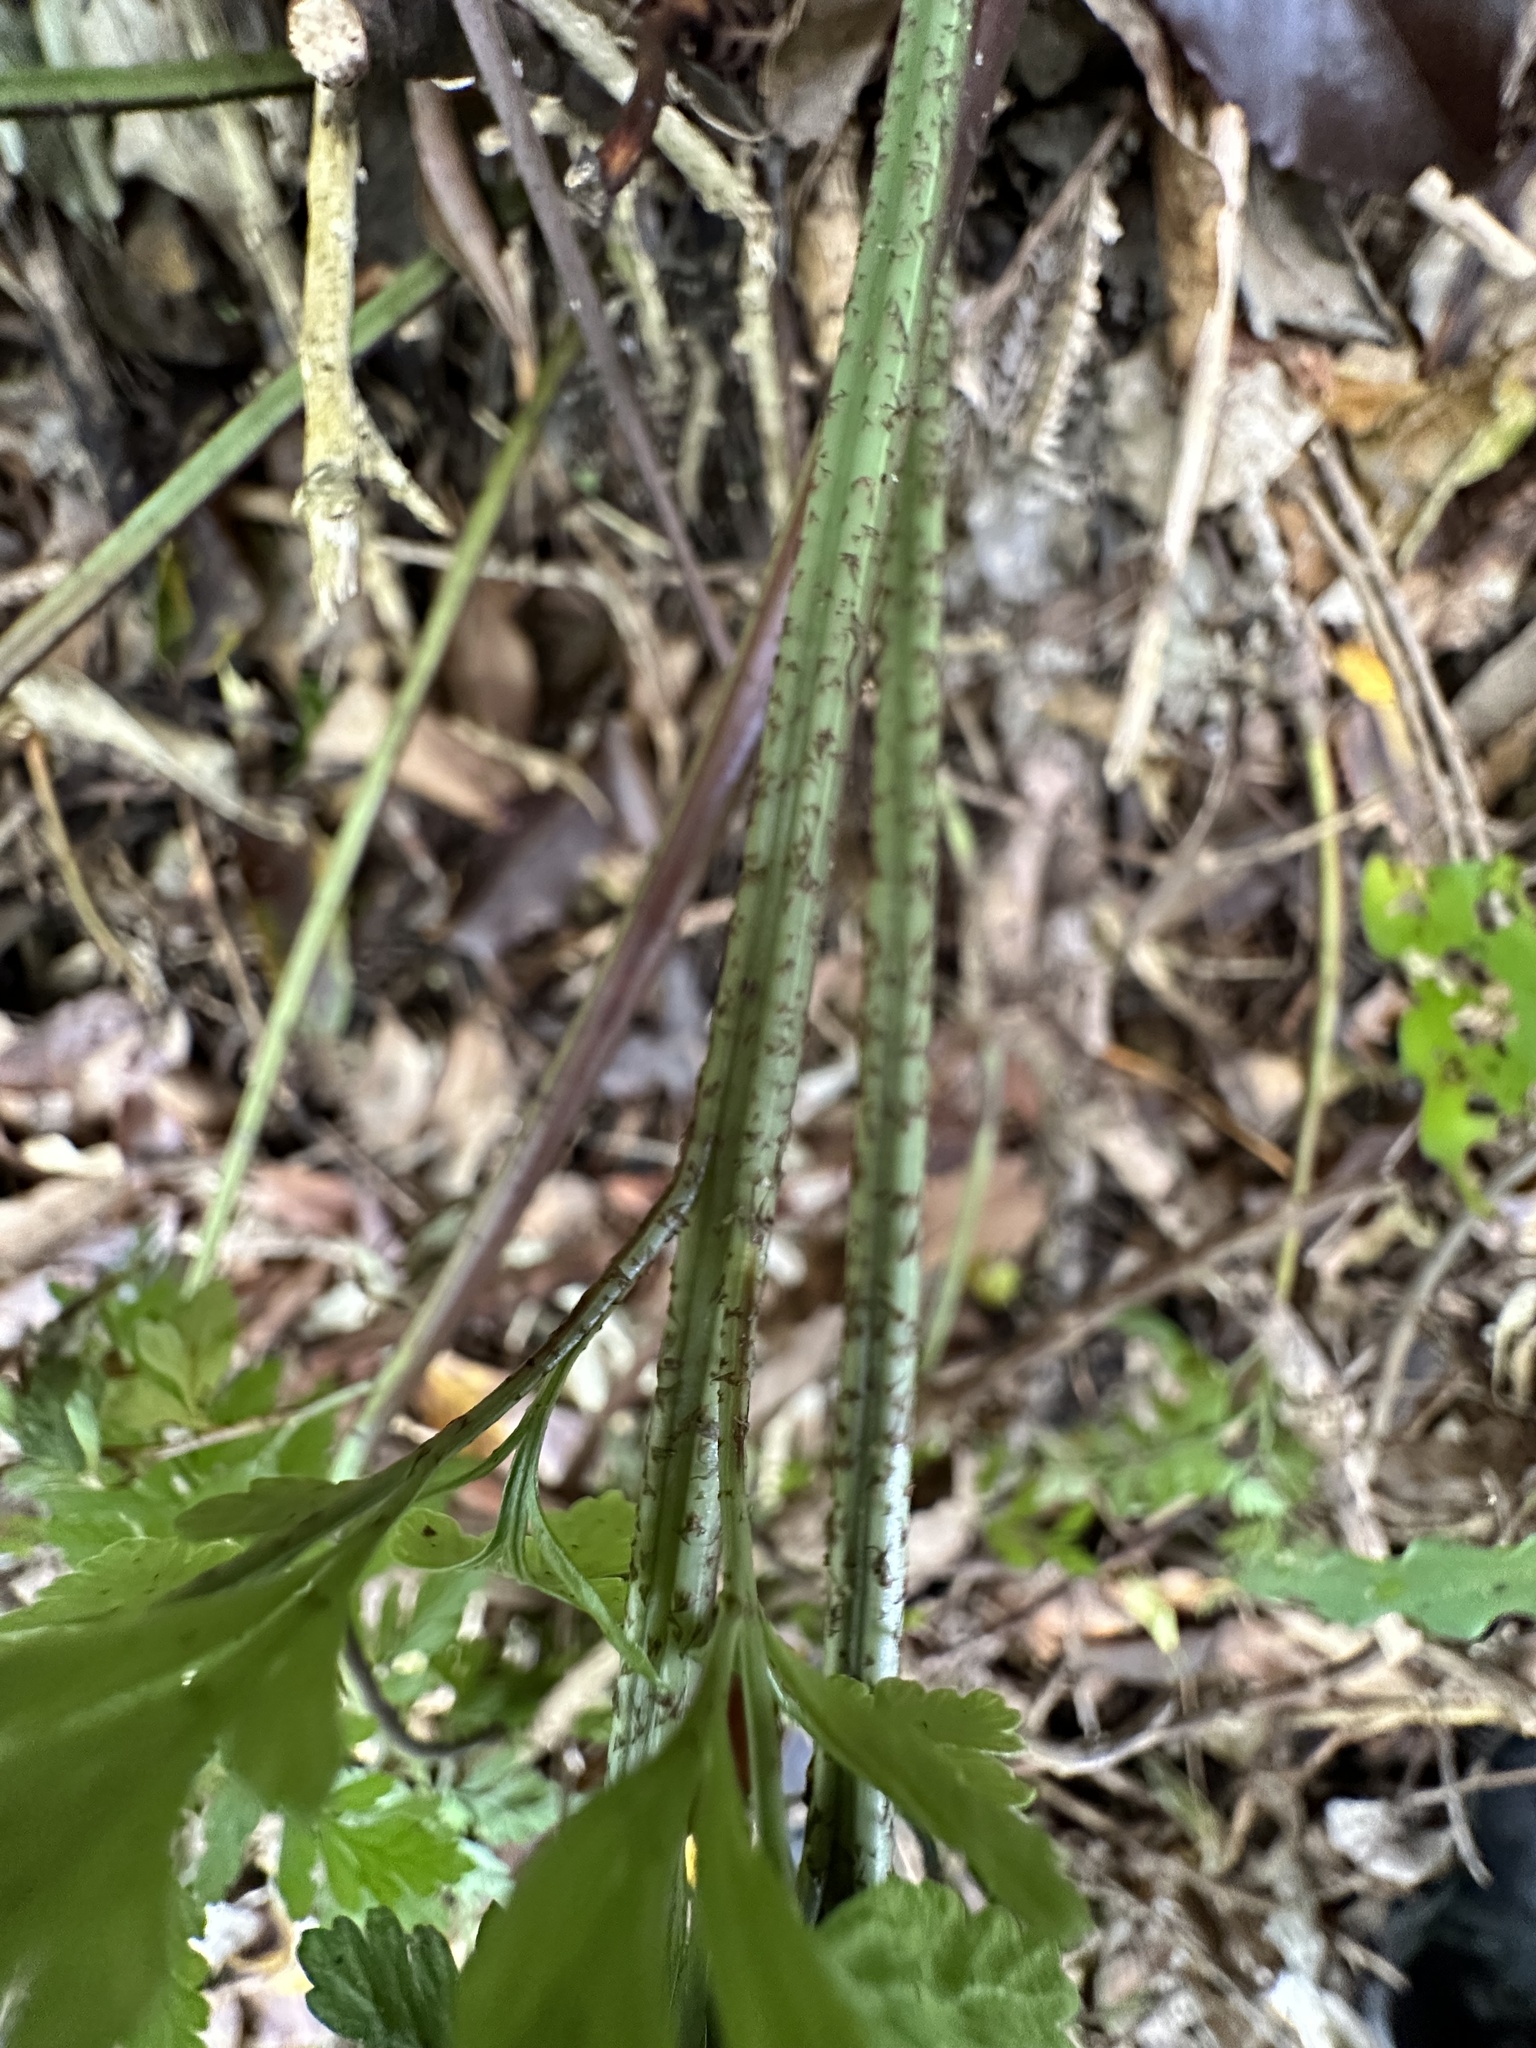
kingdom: Plantae
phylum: Tracheophyta
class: Polypodiopsida
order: Polypodiales
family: Aspleniaceae
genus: Asplenium
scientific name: Asplenium
